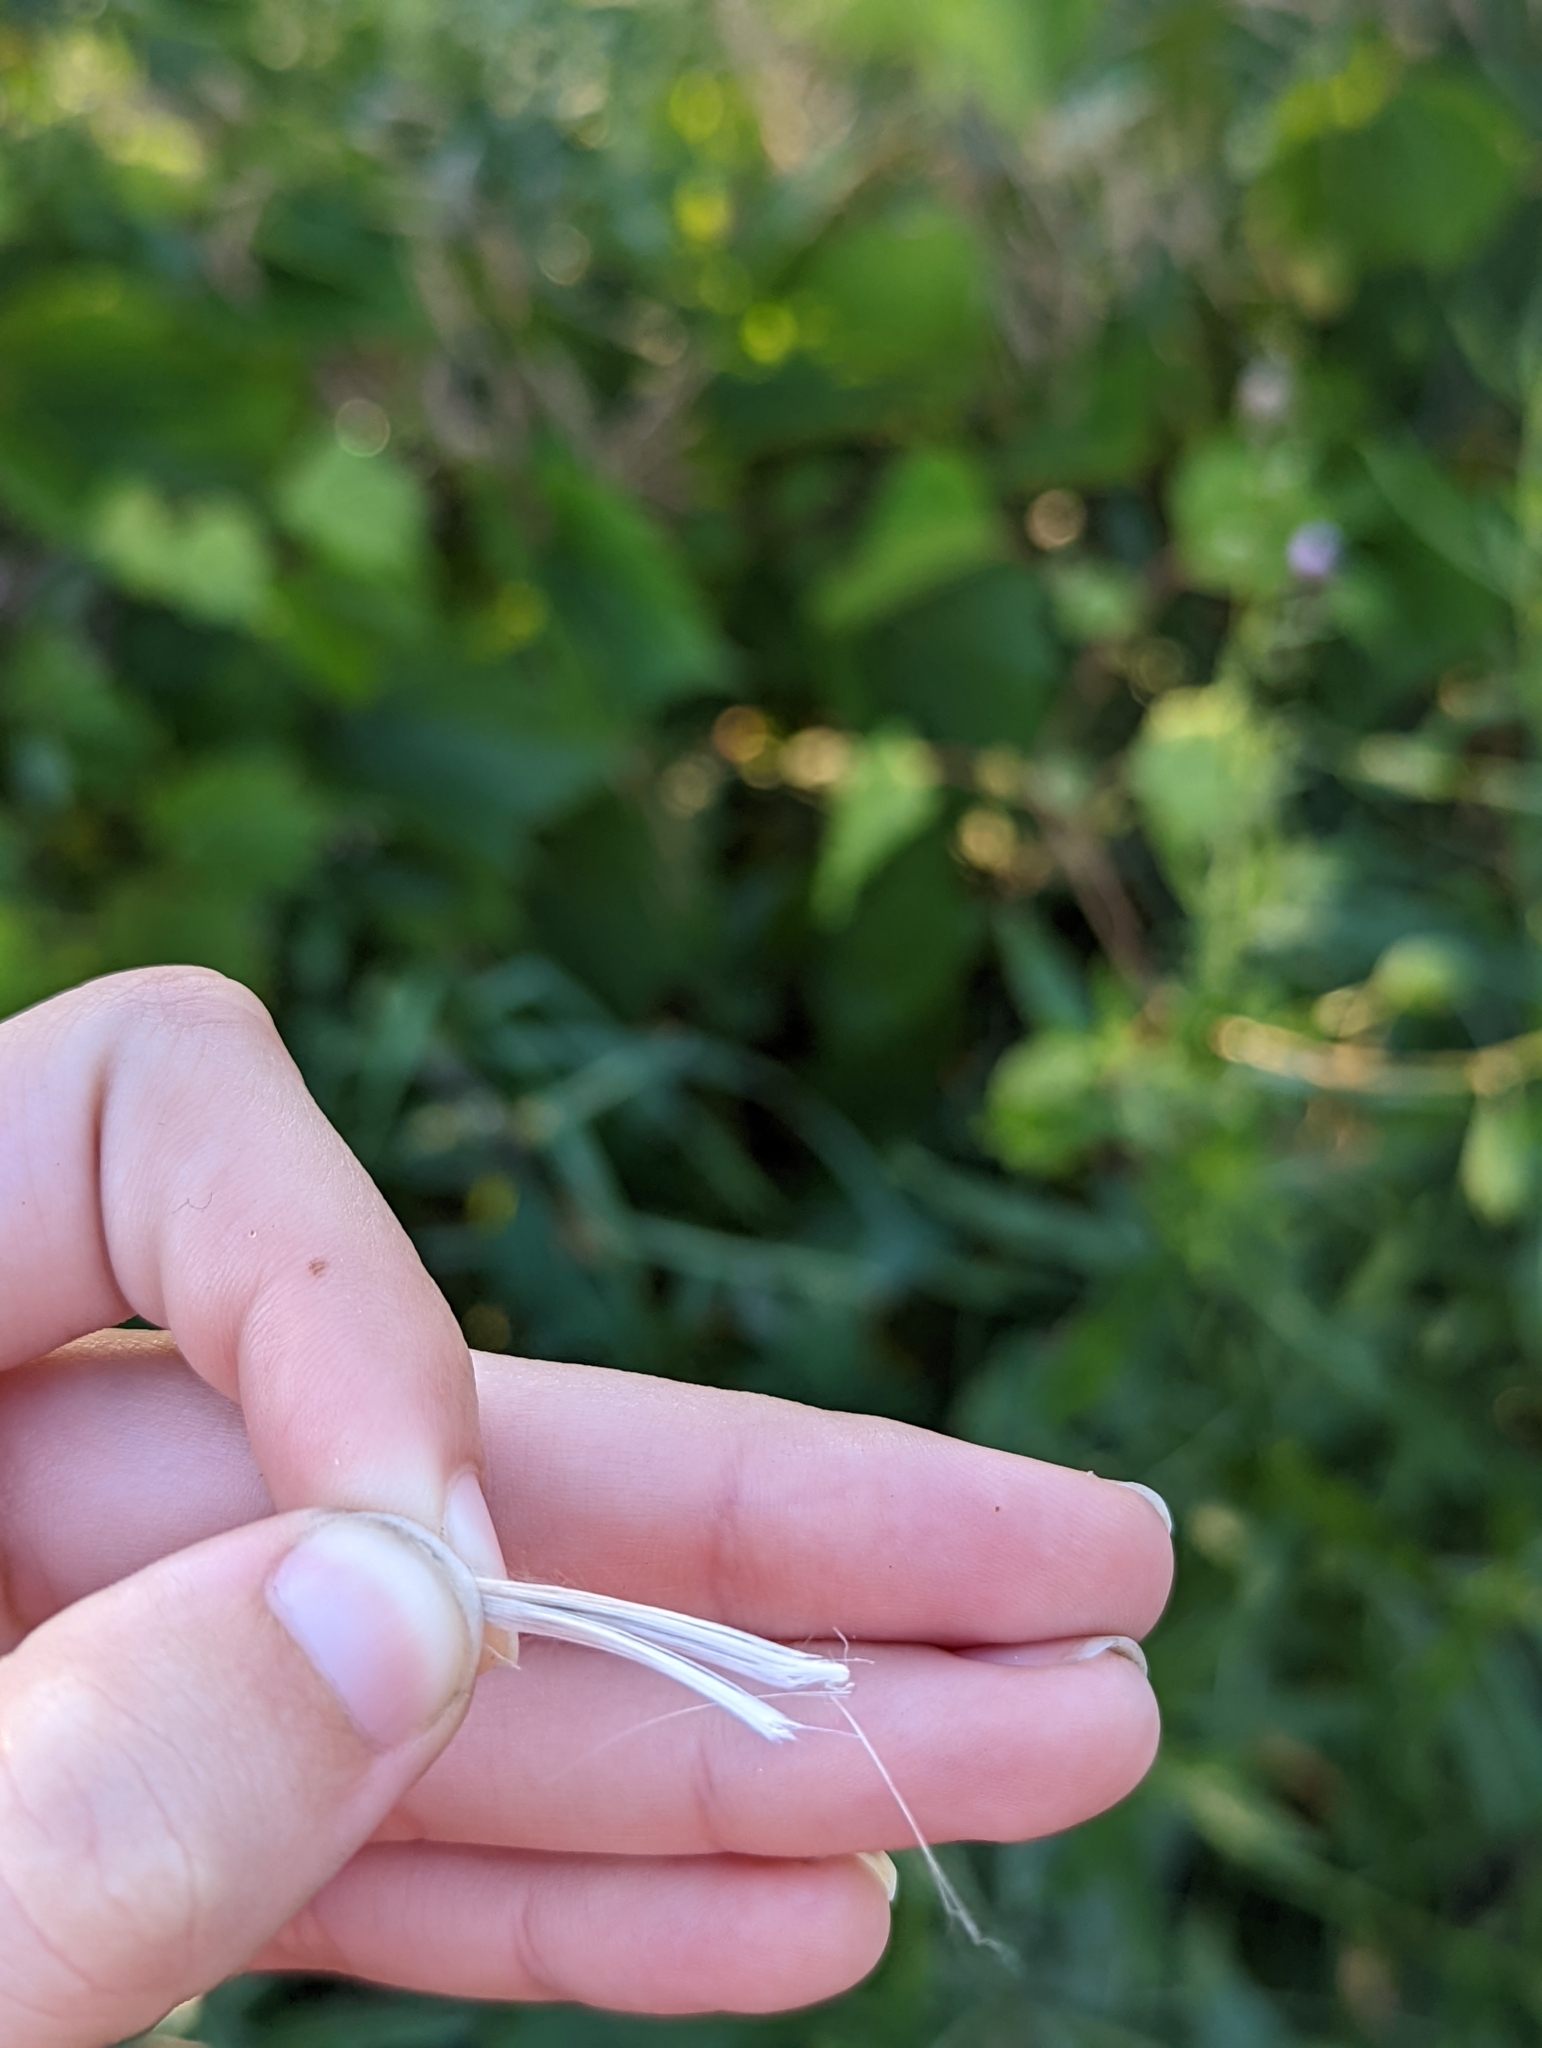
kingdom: Plantae
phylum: Tracheophyta
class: Magnoliopsida
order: Asterales
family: Asteraceae
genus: Cirsium
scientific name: Cirsium arvense
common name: Creeping thistle
